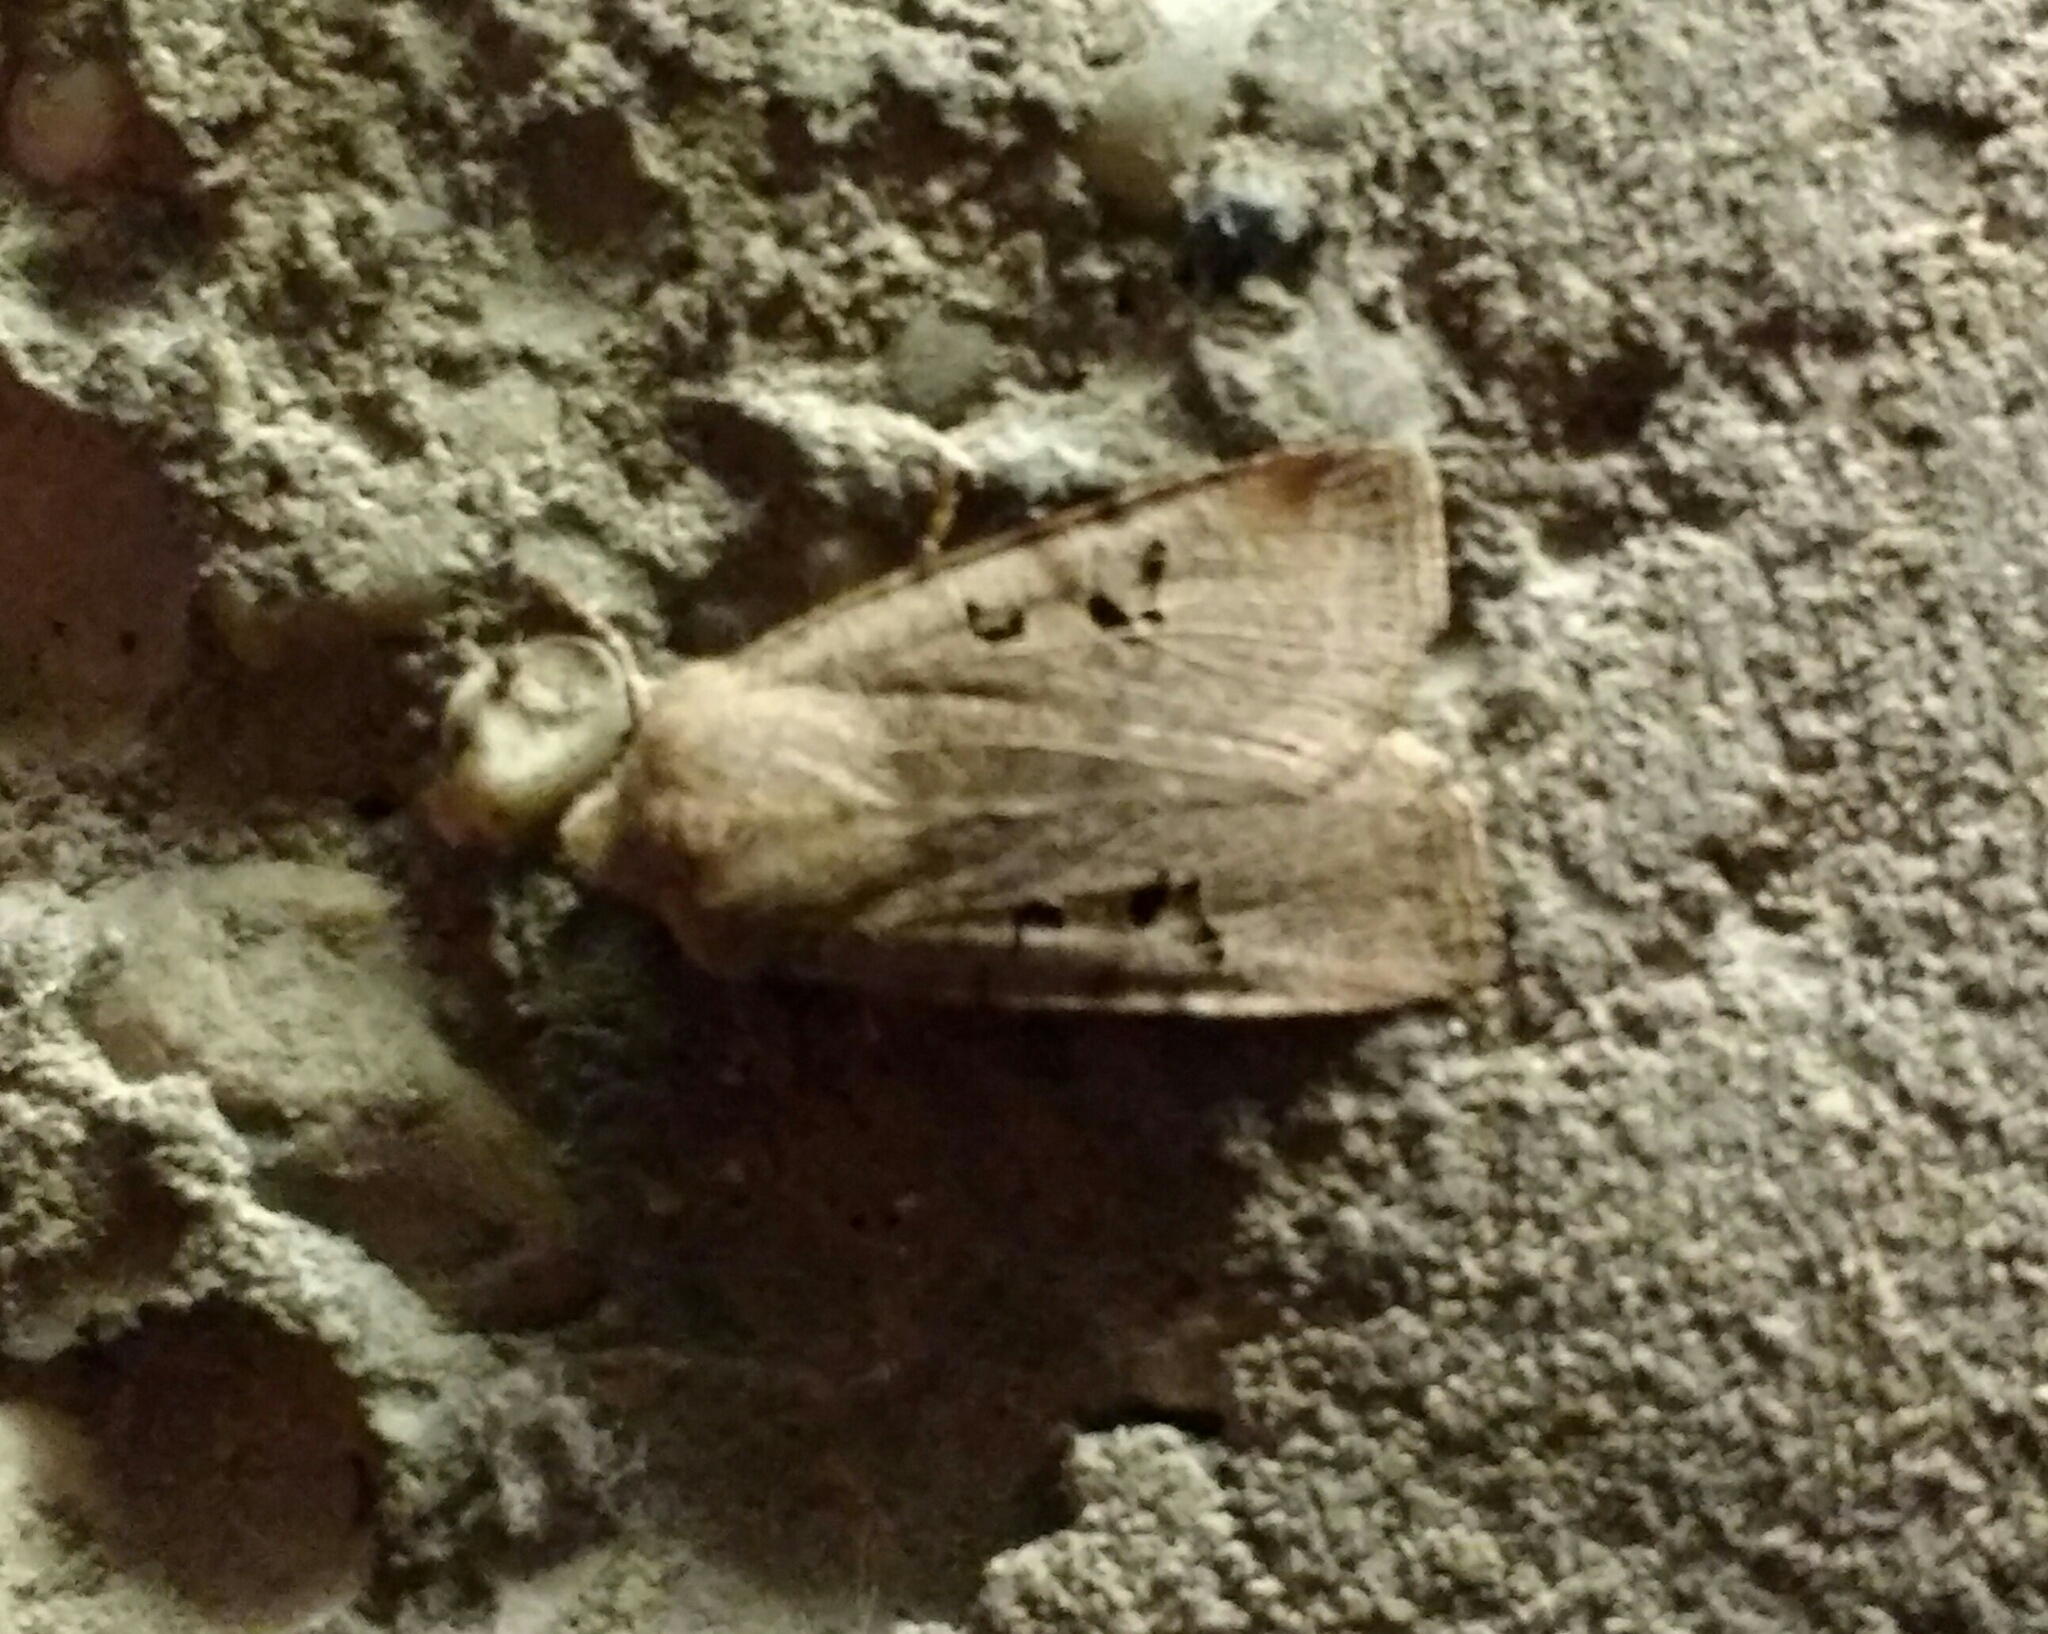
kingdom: Animalia
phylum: Arthropoda
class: Insecta
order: Lepidoptera
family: Noctuidae
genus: Conistra
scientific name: Conistra rubiginosa
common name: Black-spotted chestnut
